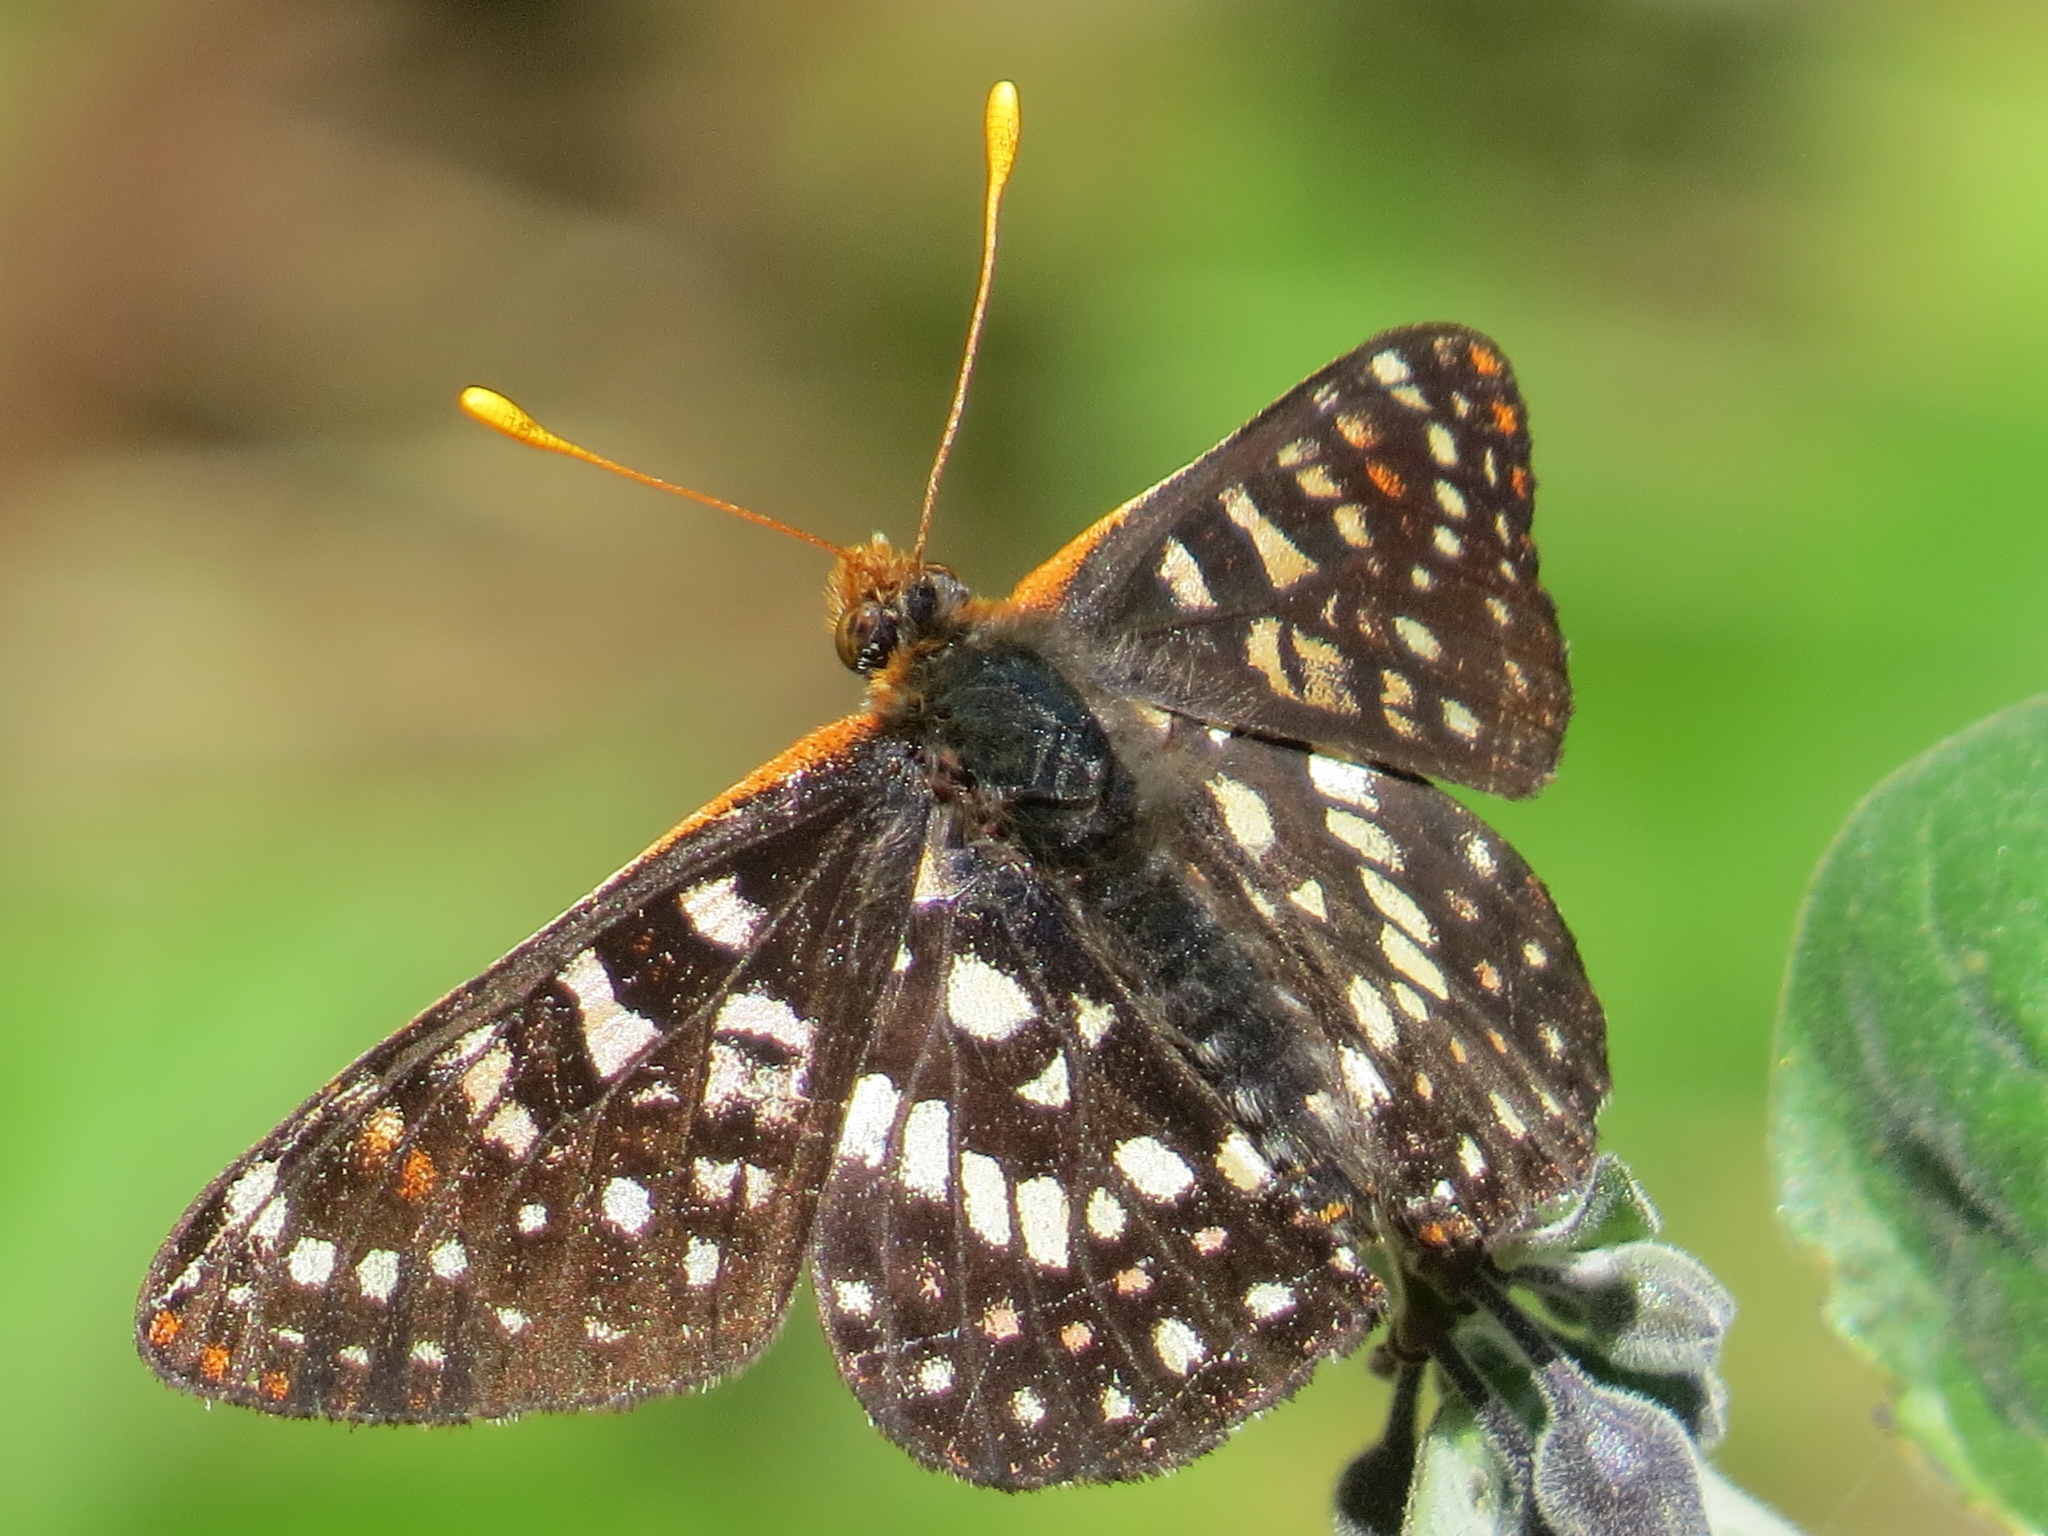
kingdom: Animalia
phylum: Arthropoda
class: Insecta
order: Lepidoptera
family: Nymphalidae
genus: Occidryas
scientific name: Occidryas chalcedona
